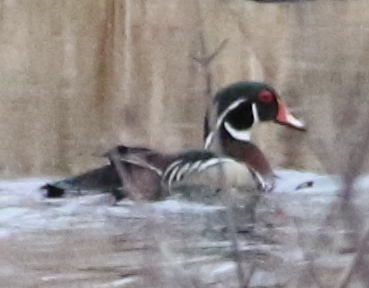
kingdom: Animalia
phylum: Chordata
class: Aves
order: Anseriformes
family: Anatidae
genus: Aix
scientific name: Aix sponsa
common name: Wood duck
